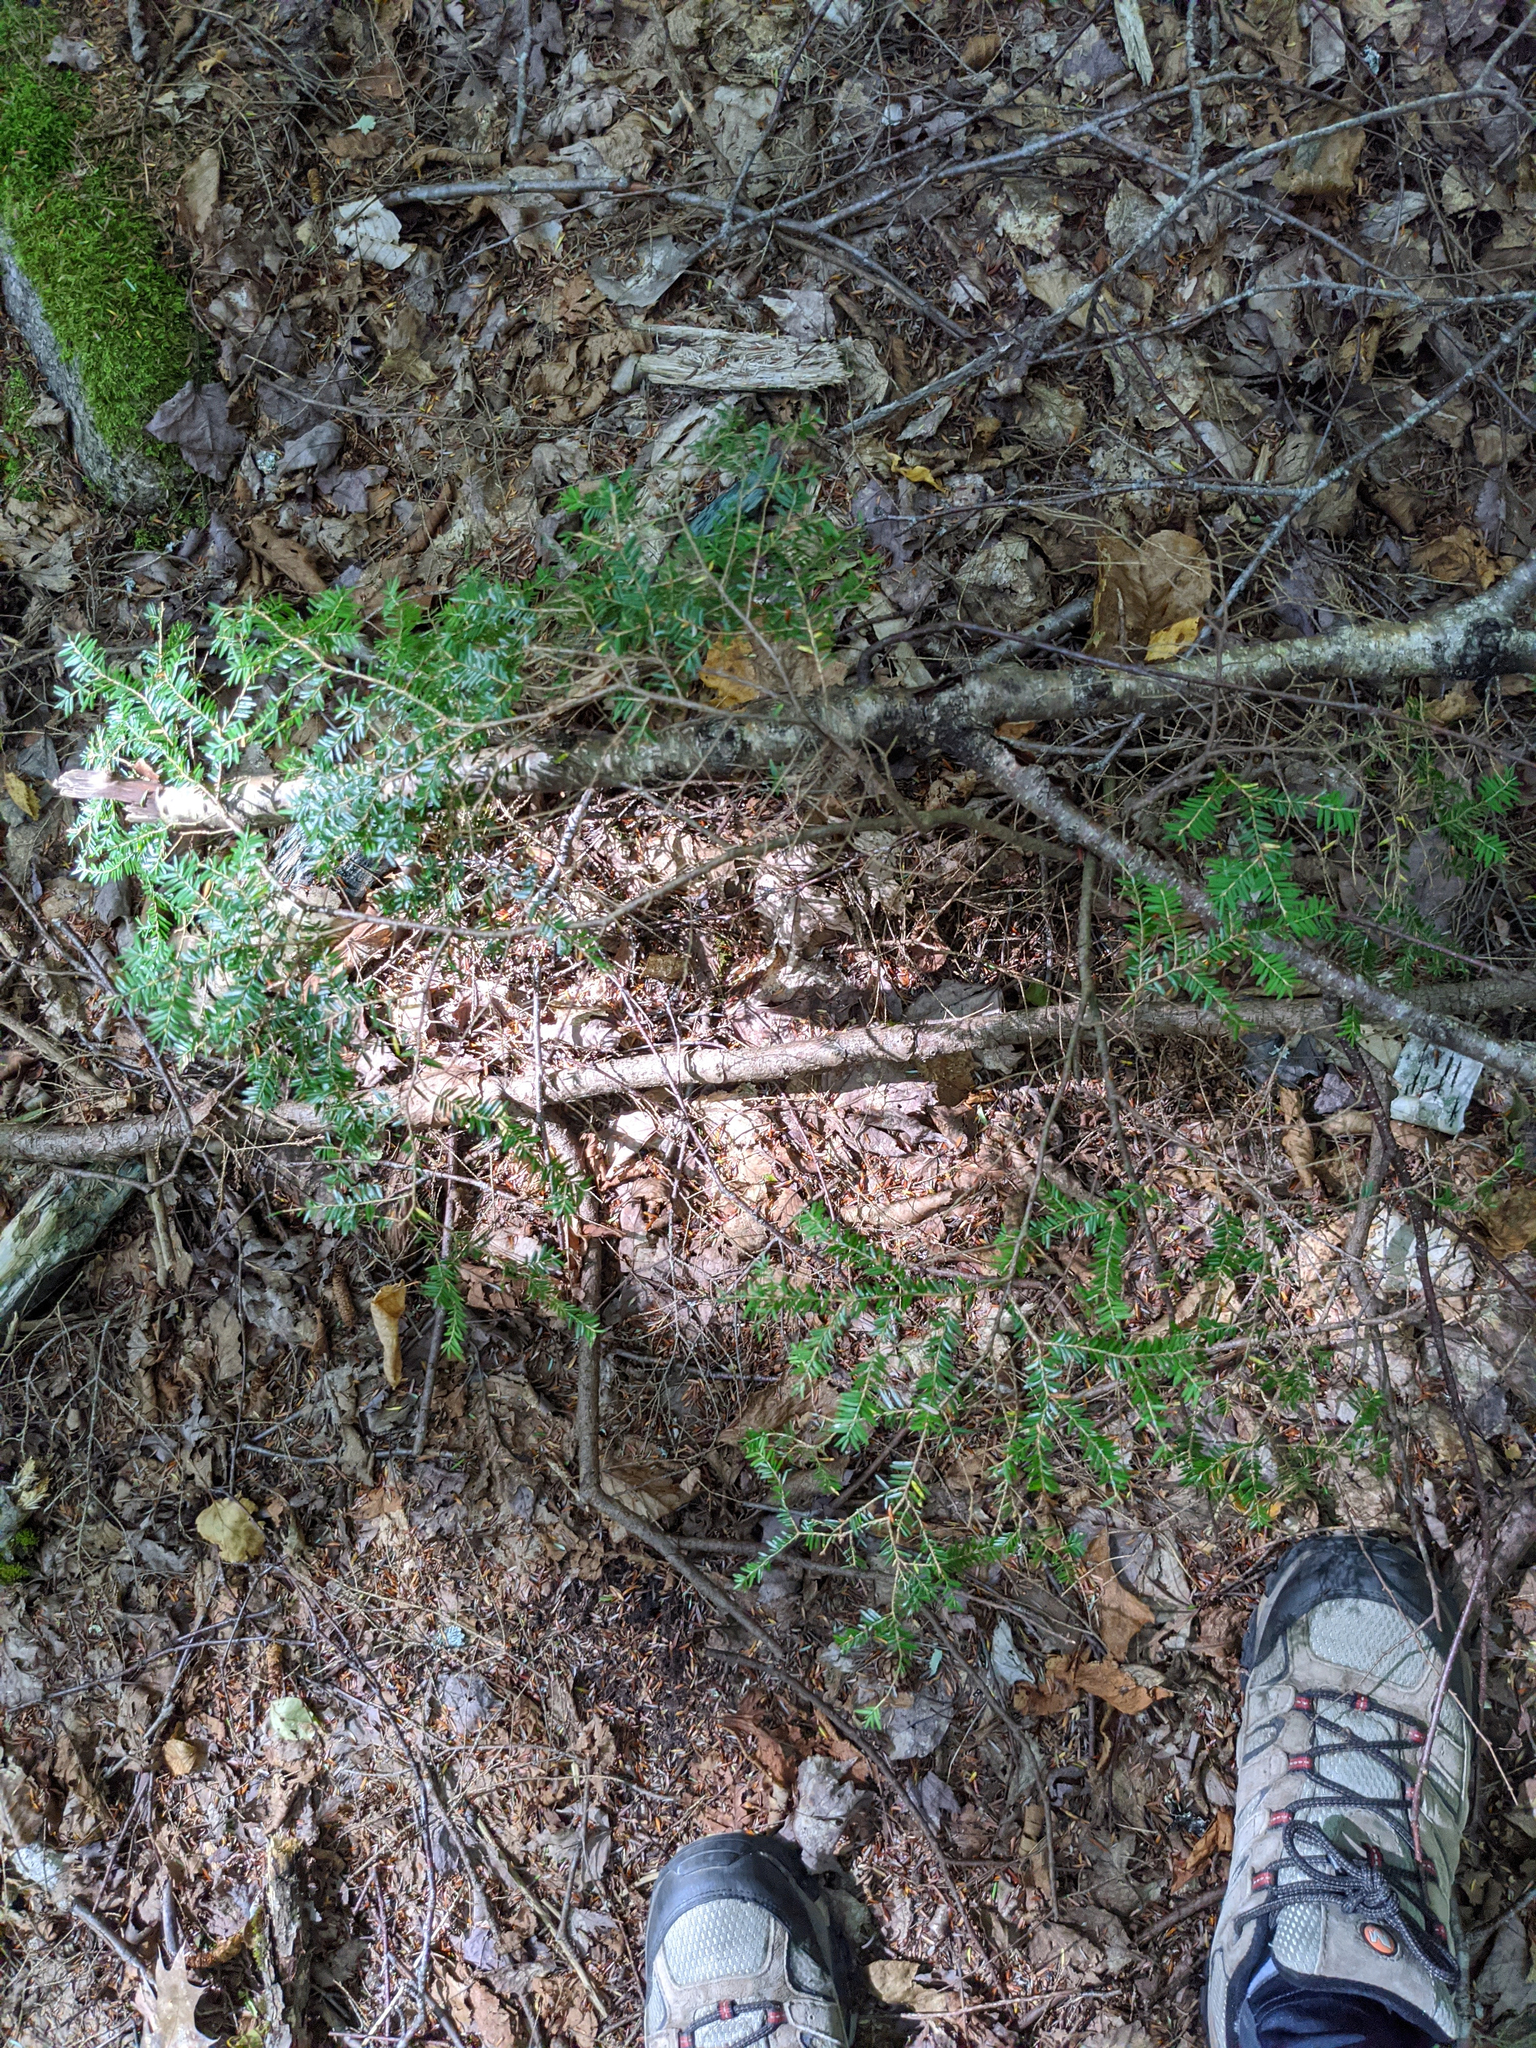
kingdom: Plantae
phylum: Tracheophyta
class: Pinopsida
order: Pinales
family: Pinaceae
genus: Tsuga
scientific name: Tsuga canadensis
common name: Eastern hemlock
